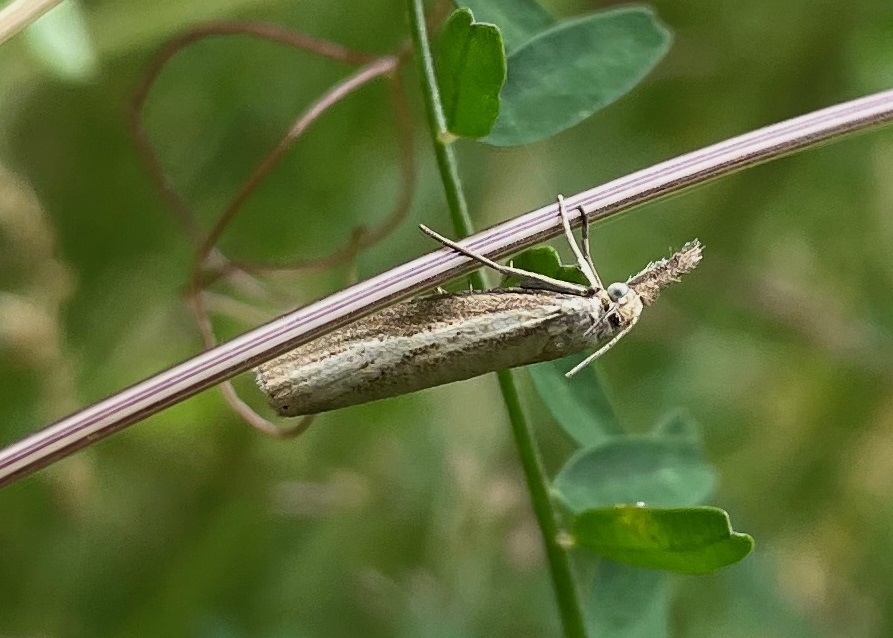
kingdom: Animalia
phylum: Arthropoda
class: Insecta
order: Lepidoptera
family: Crambidae
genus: Agriphila
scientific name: Agriphila straminella
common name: Straw grass-veneer
